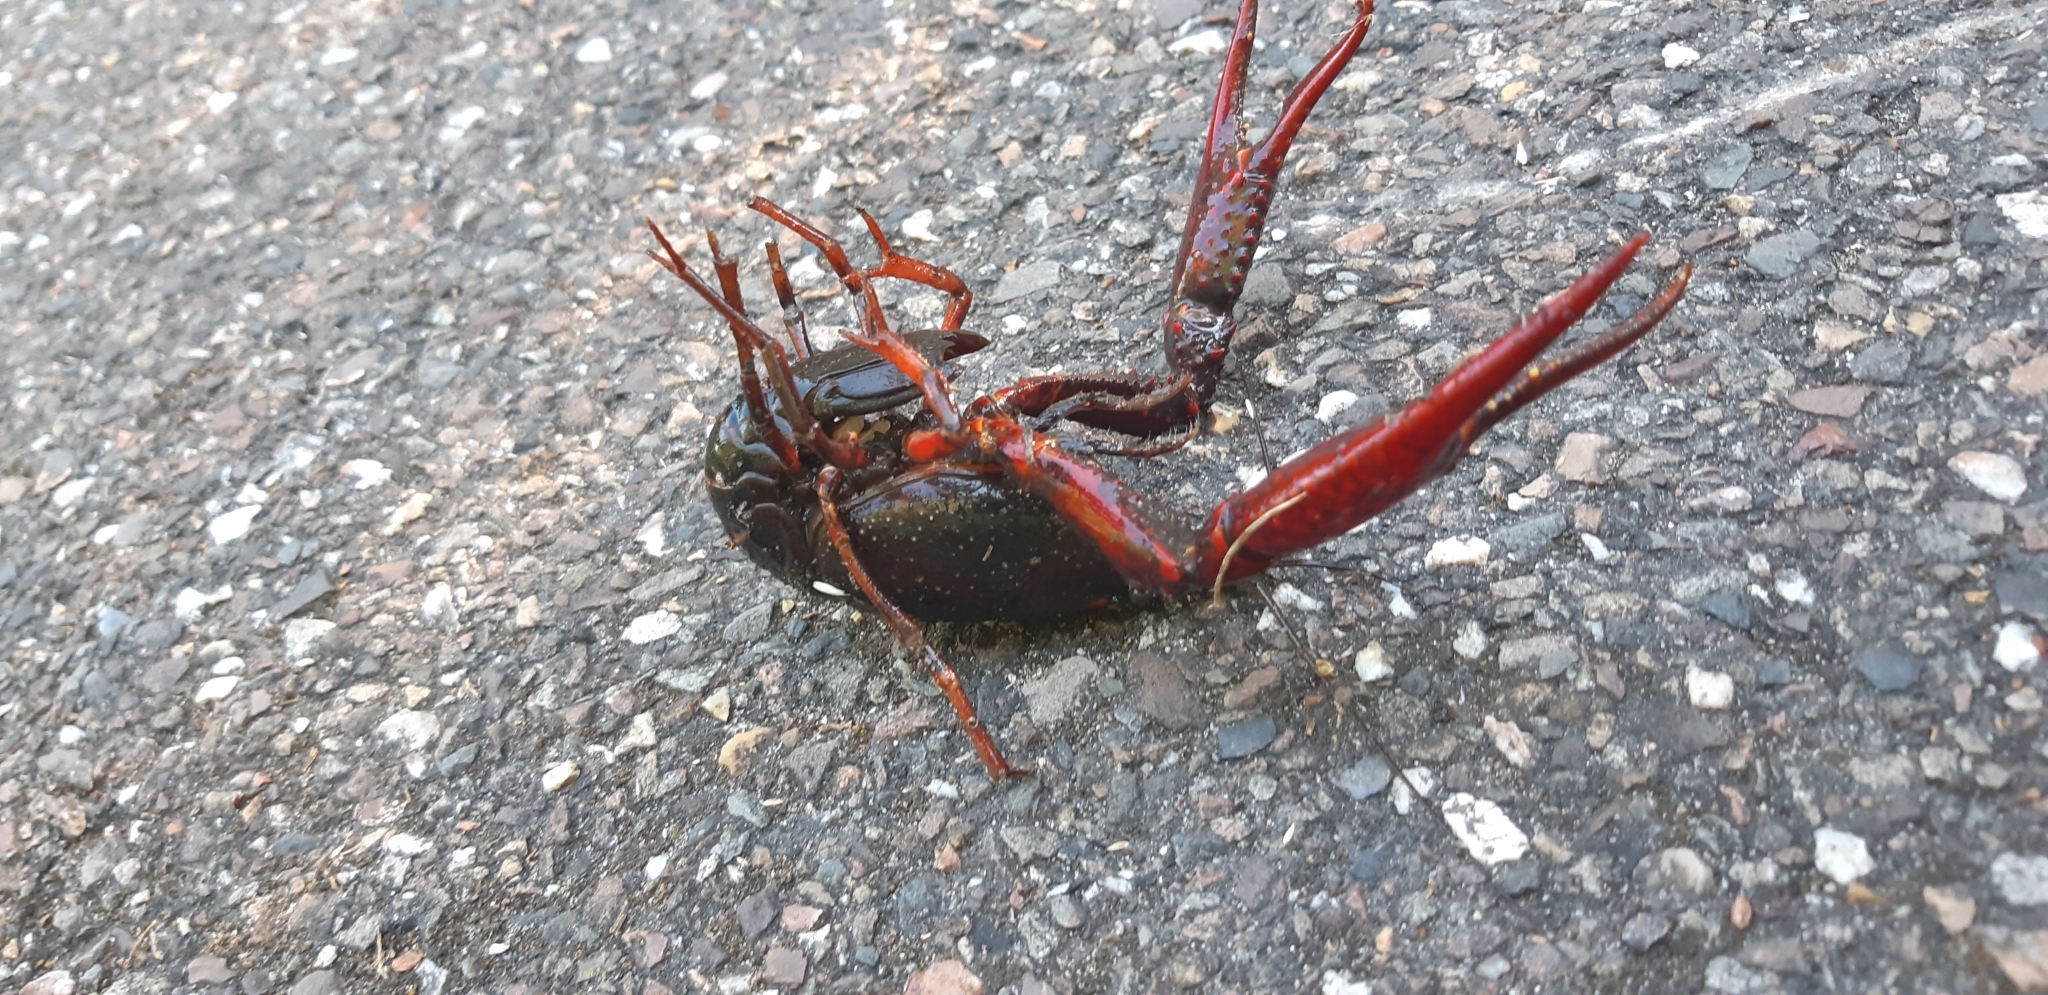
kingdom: Animalia
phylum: Arthropoda
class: Malacostraca
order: Decapoda
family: Cambaridae
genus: Procambarus
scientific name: Procambarus clarkii
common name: Red swamp crayfish
